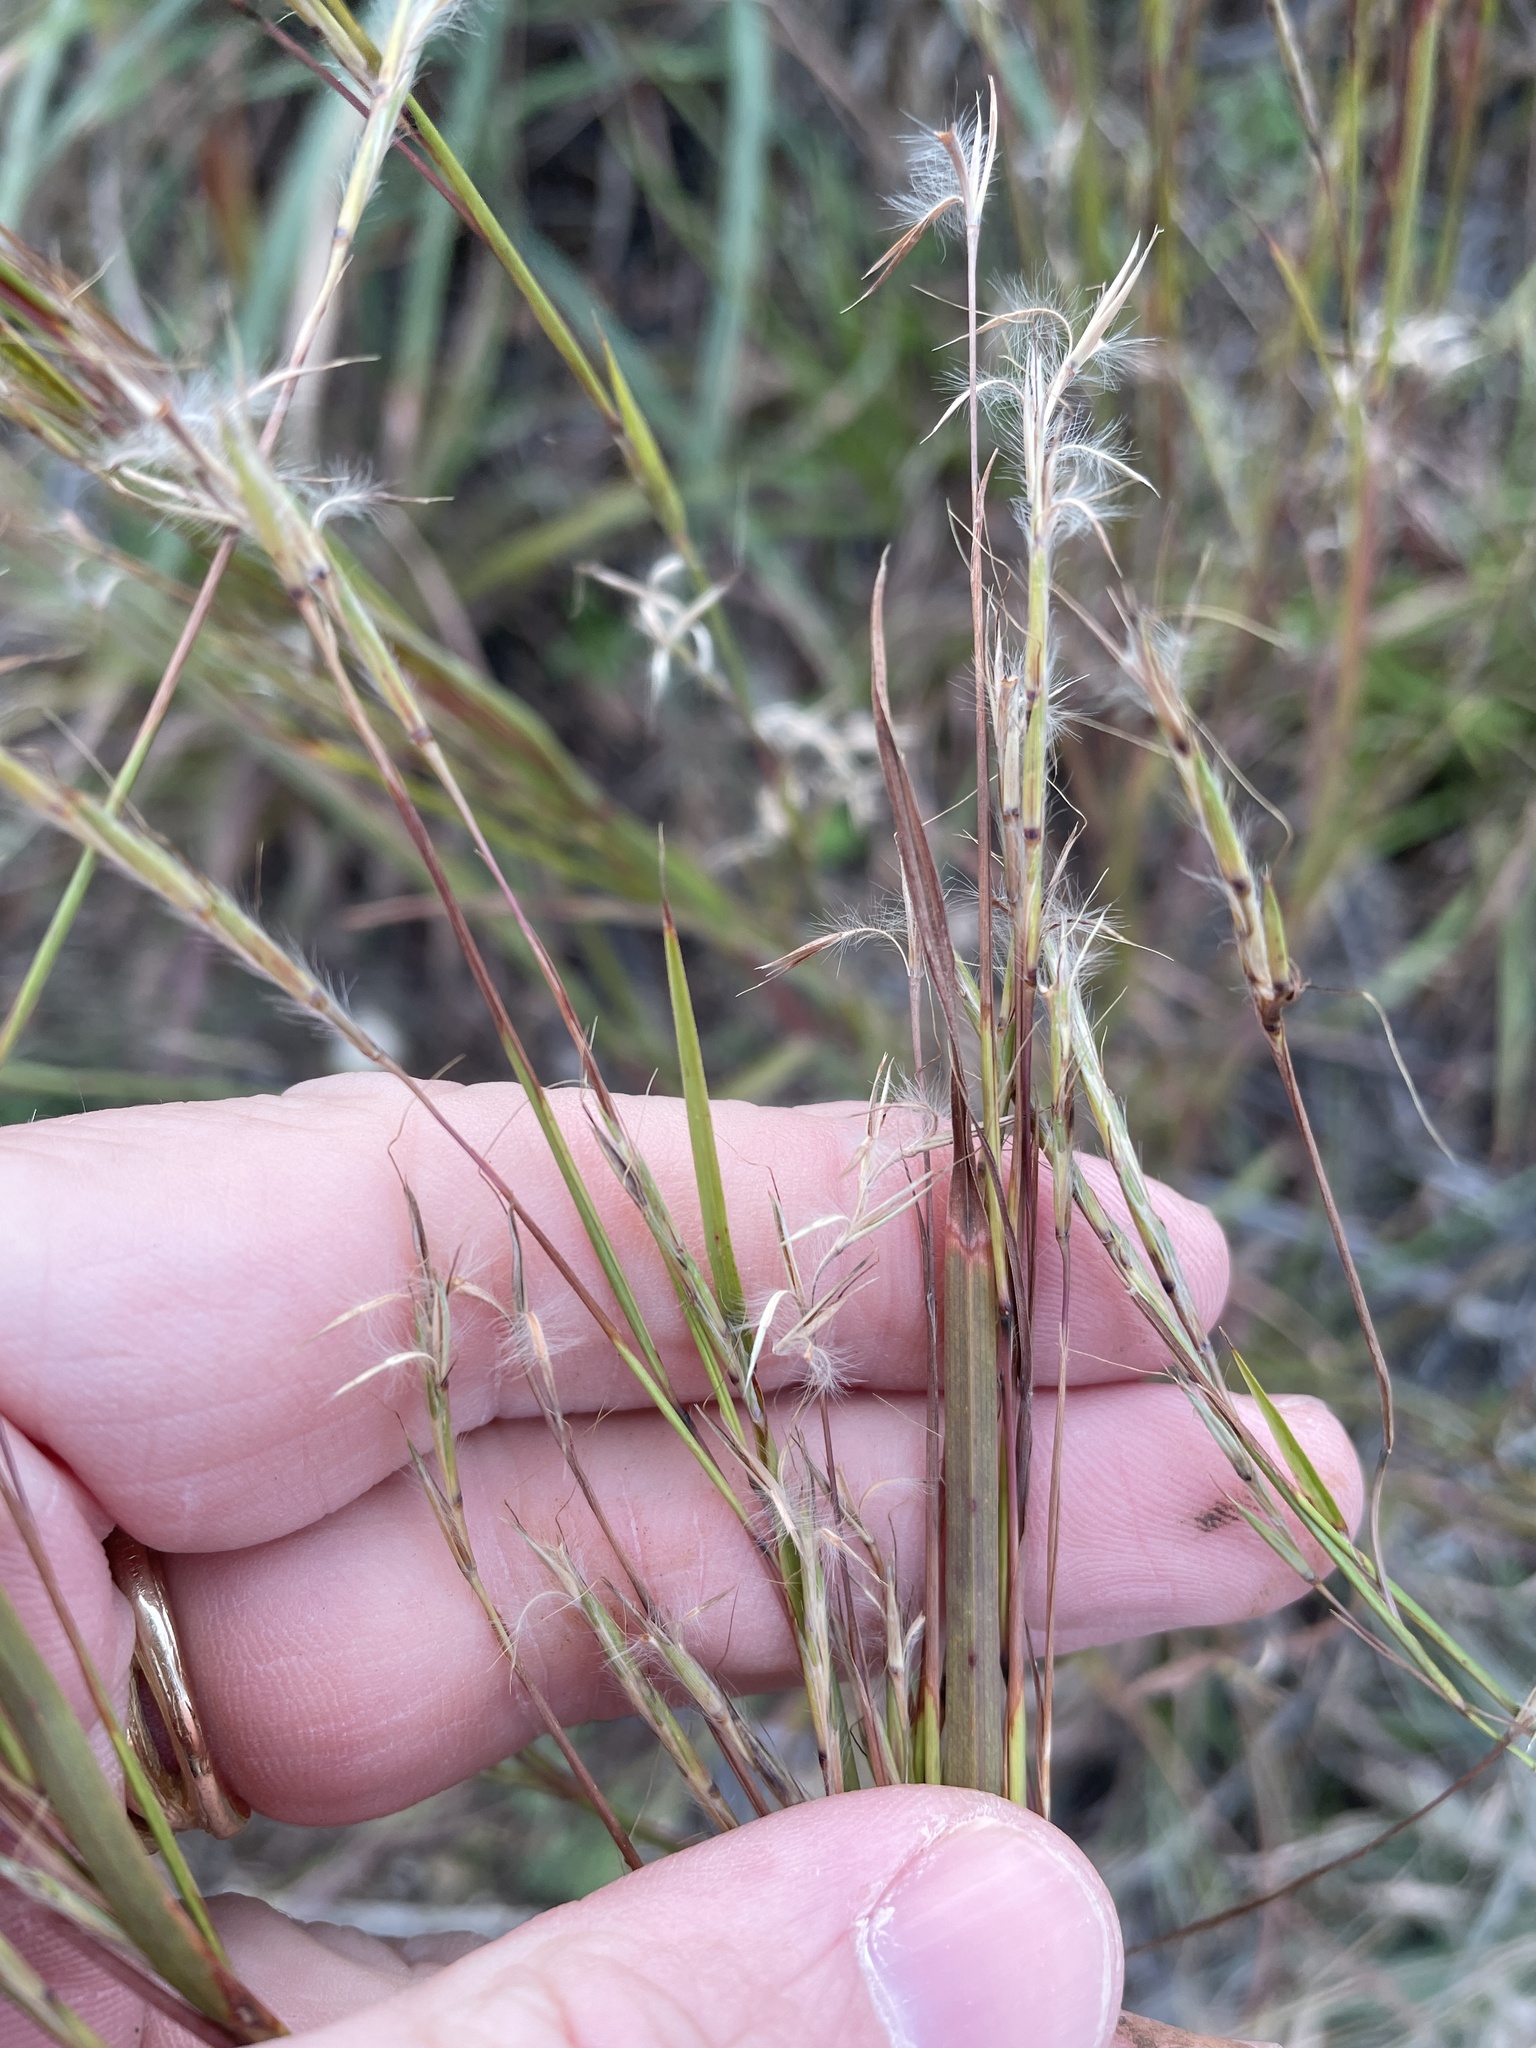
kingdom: Plantae
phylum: Tracheophyta
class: Liliopsida
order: Poales
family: Poaceae
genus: Schizachyrium
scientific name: Schizachyrium scoparium
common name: Little bluestem
